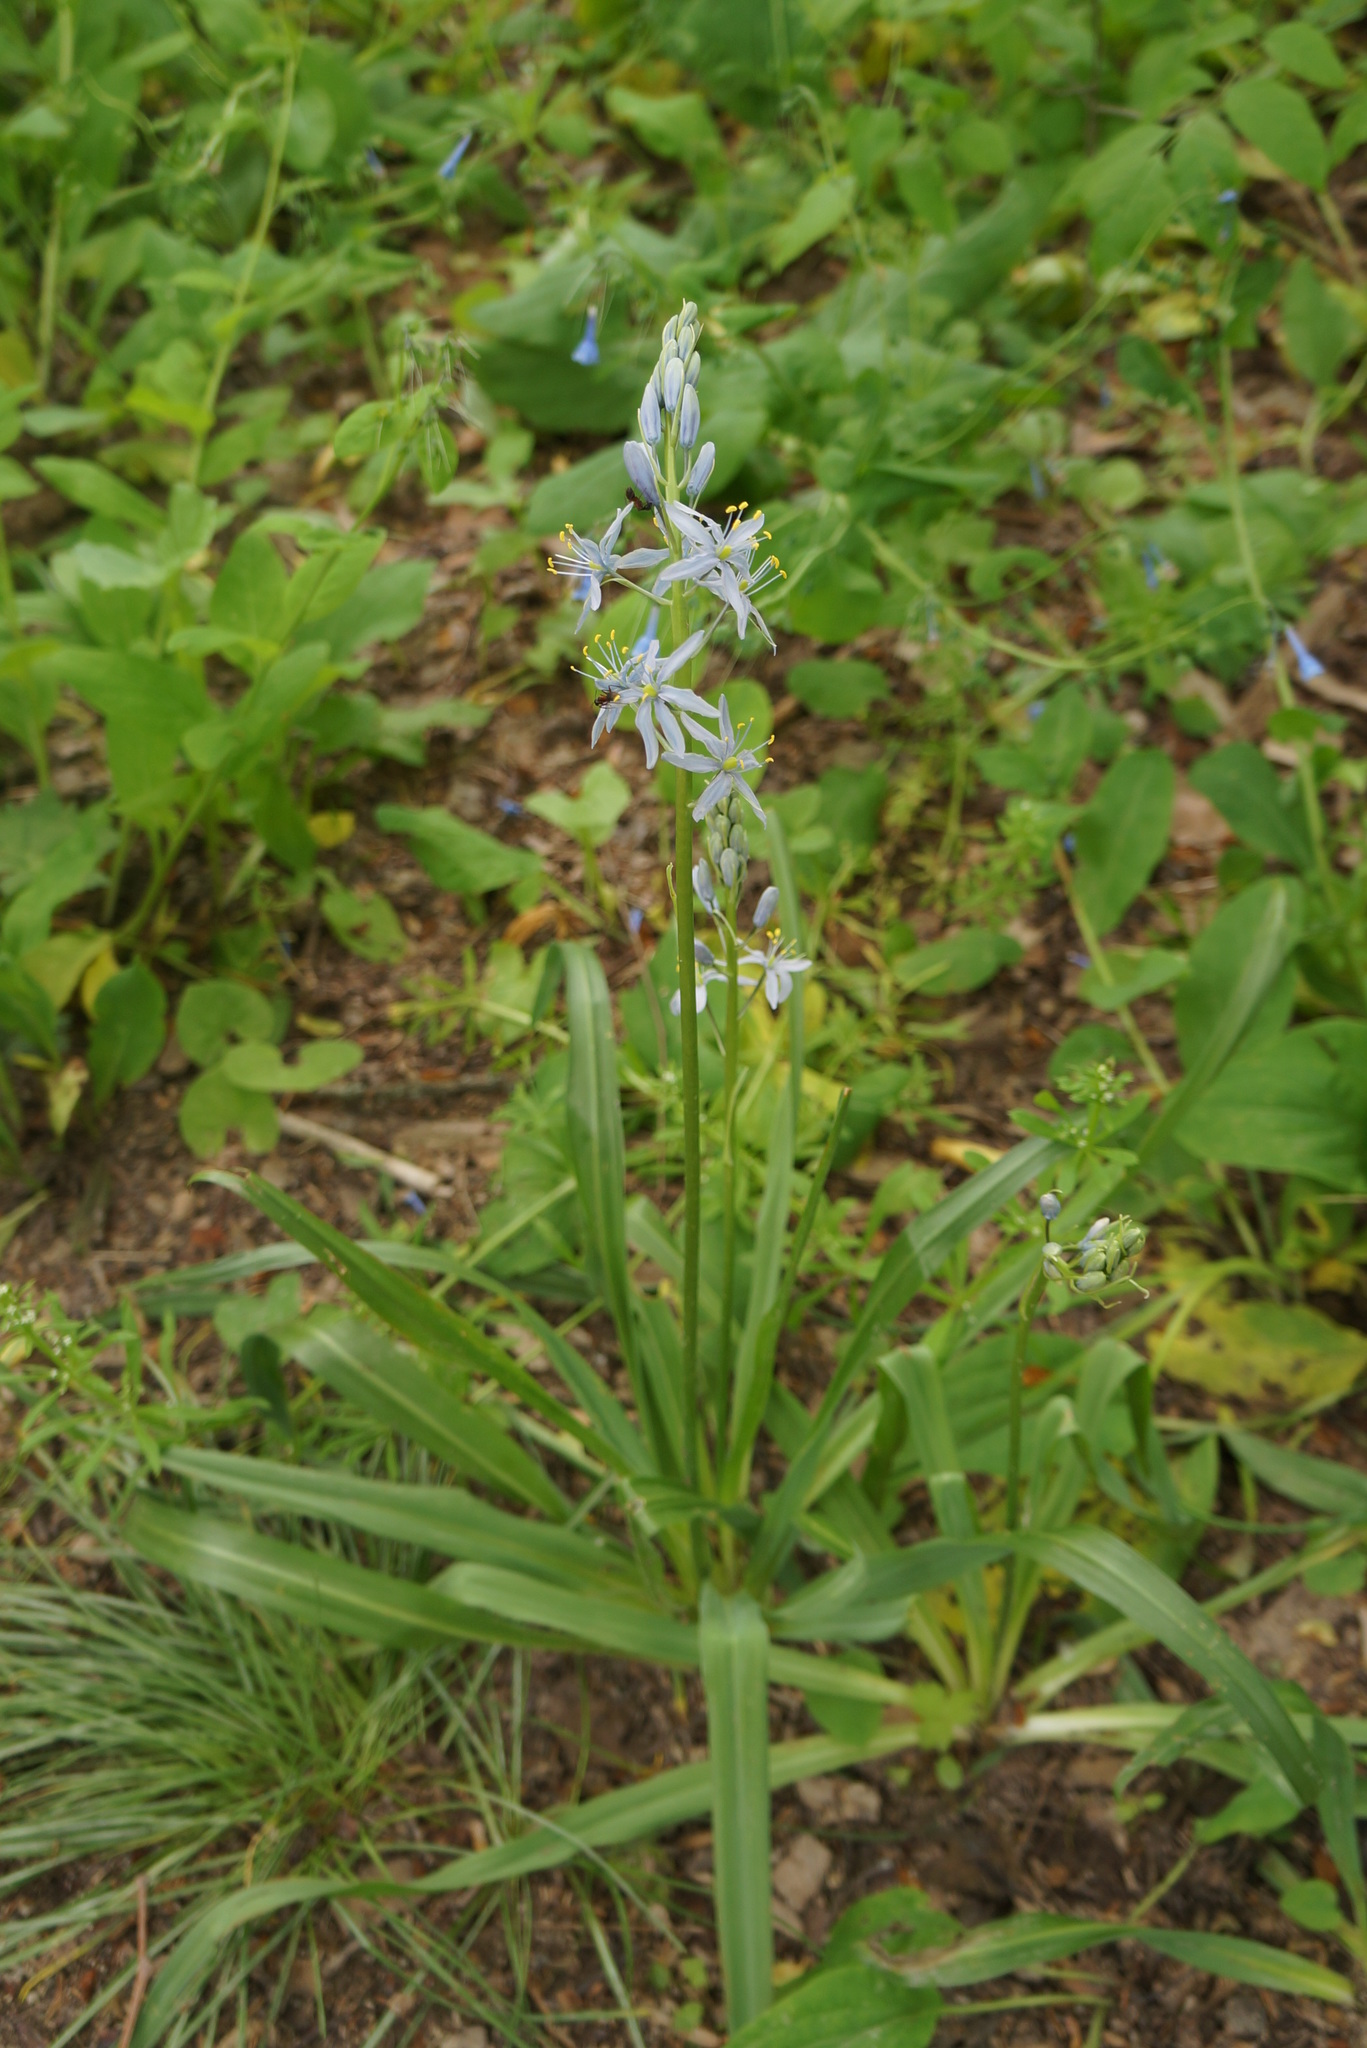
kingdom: Plantae
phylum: Tracheophyta
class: Liliopsida
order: Asparagales
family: Asparagaceae
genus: Camassia
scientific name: Camassia scilloides
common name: Wild hyacinth
